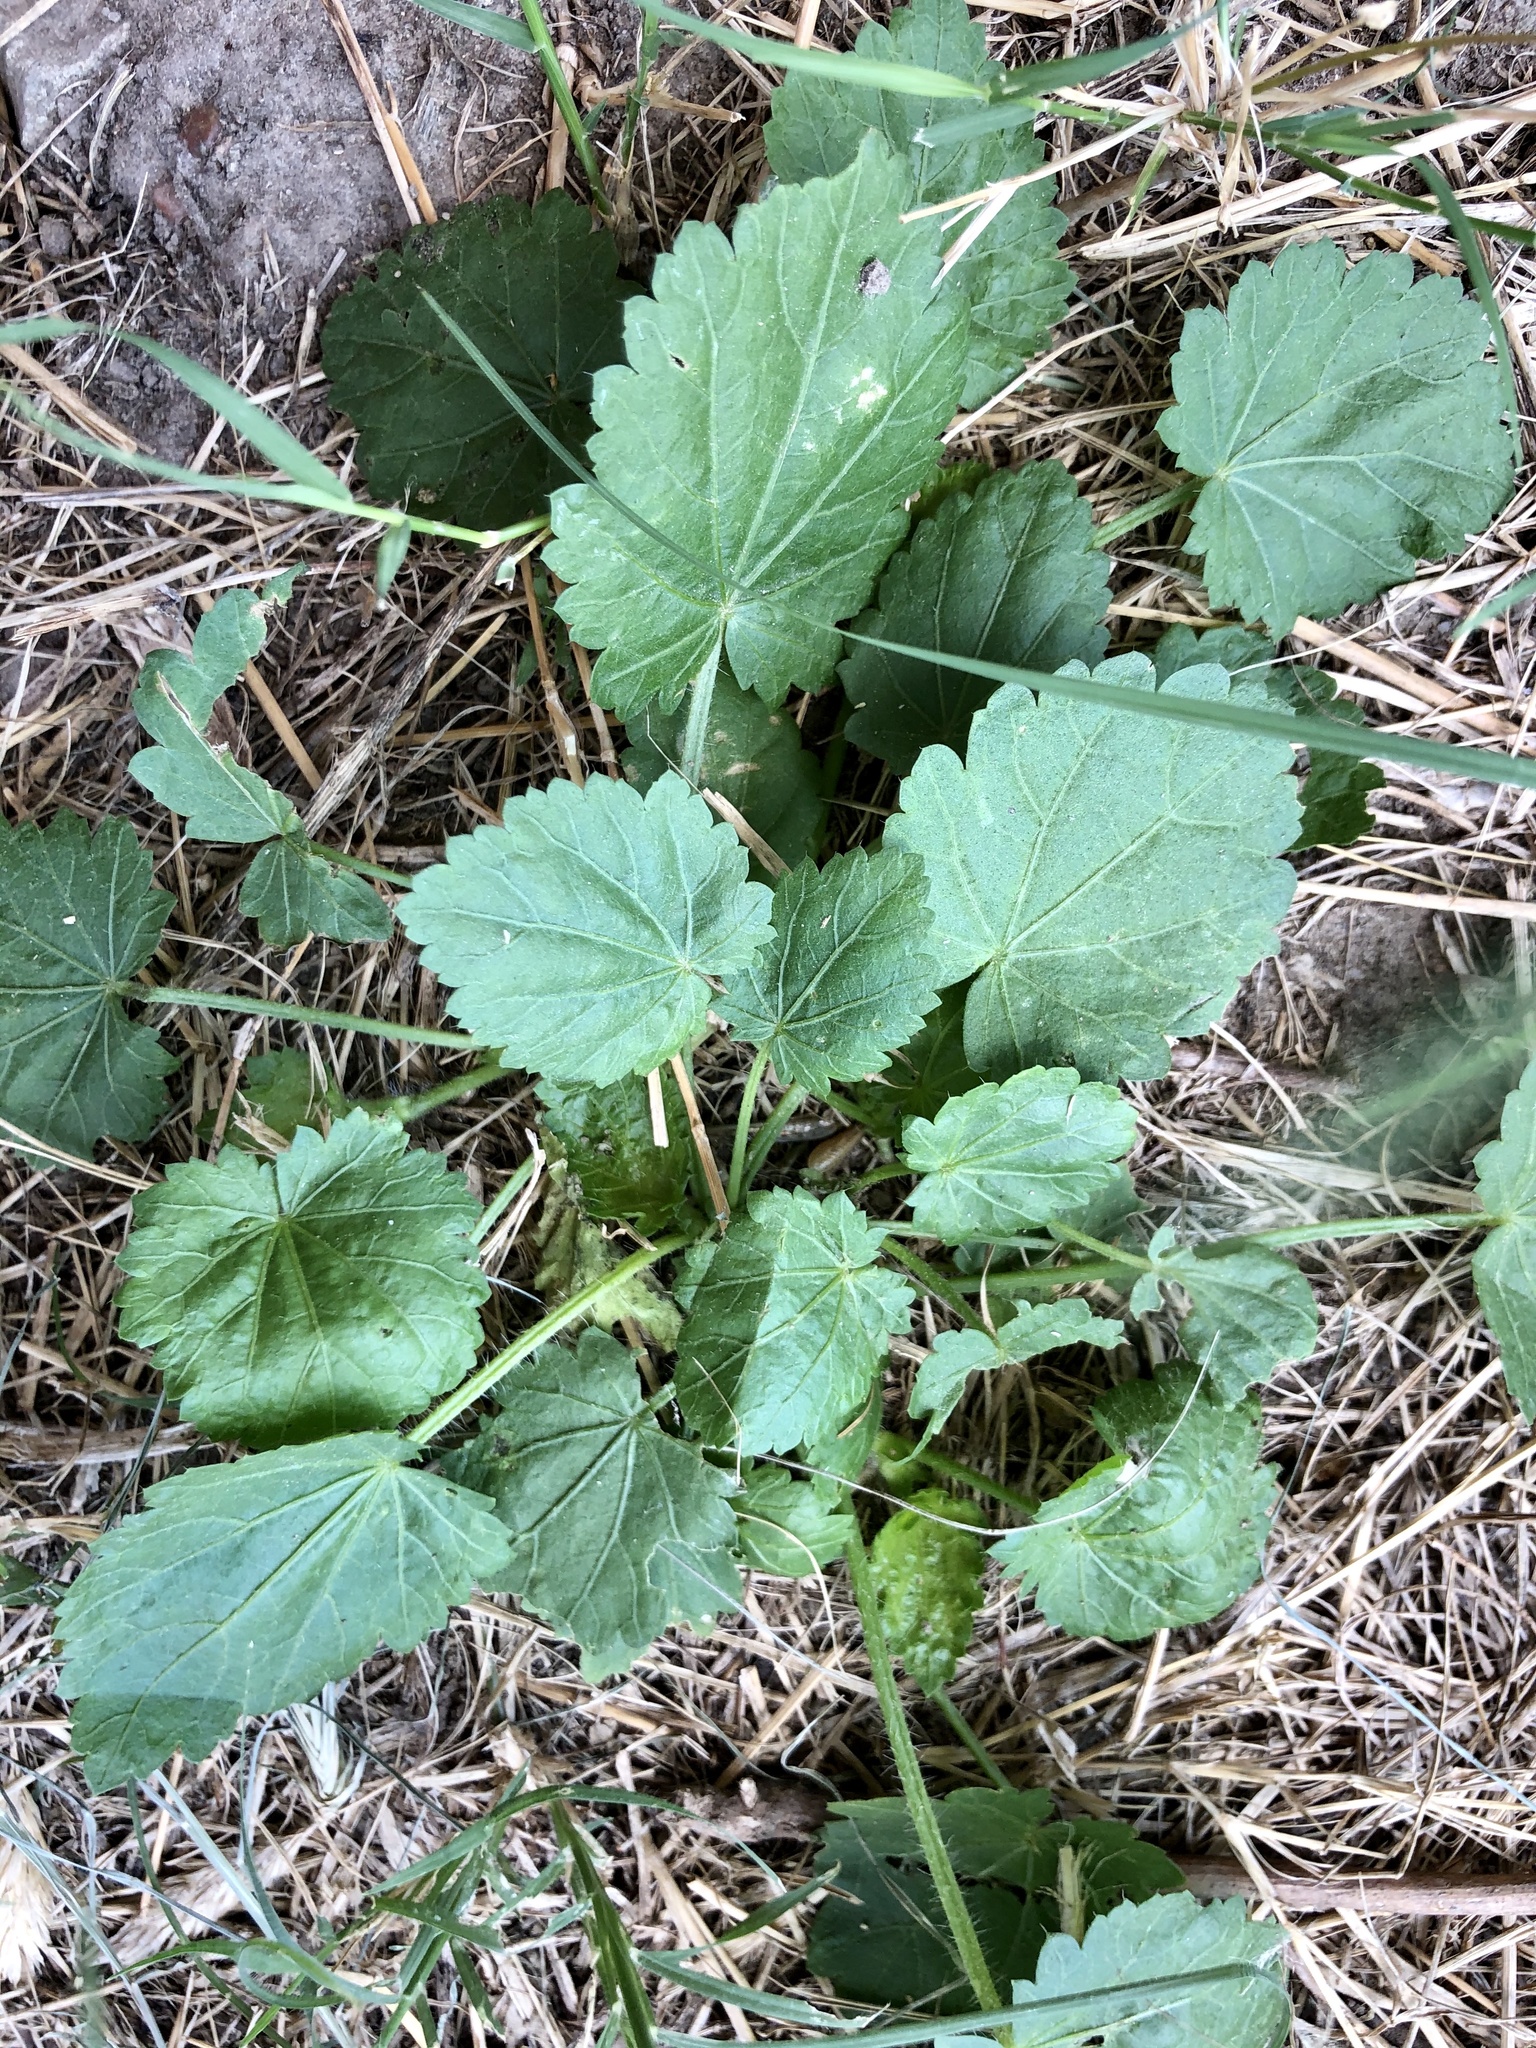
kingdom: Plantae
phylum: Tracheophyta
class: Magnoliopsida
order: Malvales
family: Malvaceae
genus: Modiola
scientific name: Modiola caroliniana
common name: Carolina bristlemallow
